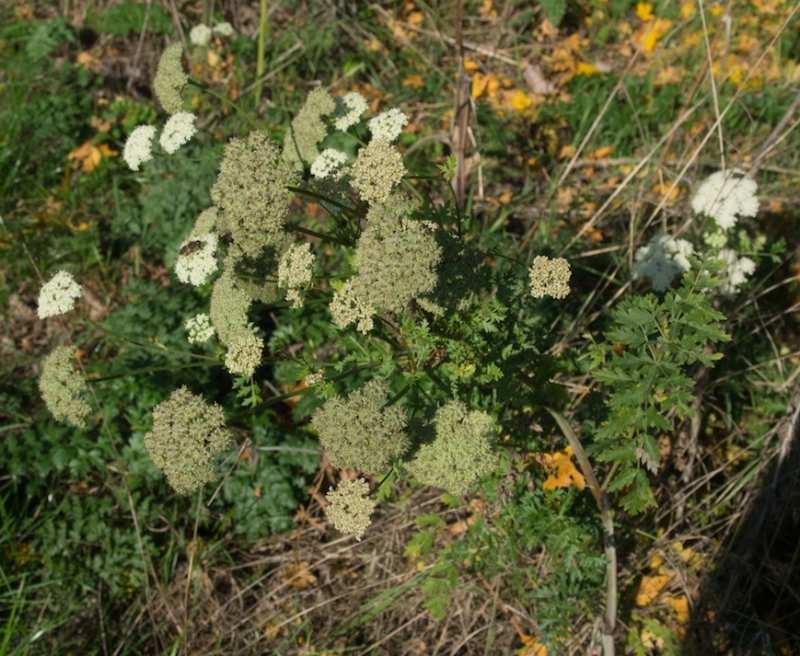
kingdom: Plantae
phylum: Tracheophyta
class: Magnoliopsida
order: Apiales
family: Apiaceae
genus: Seseli
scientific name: Seseli libanotis
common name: Mooncarrot
